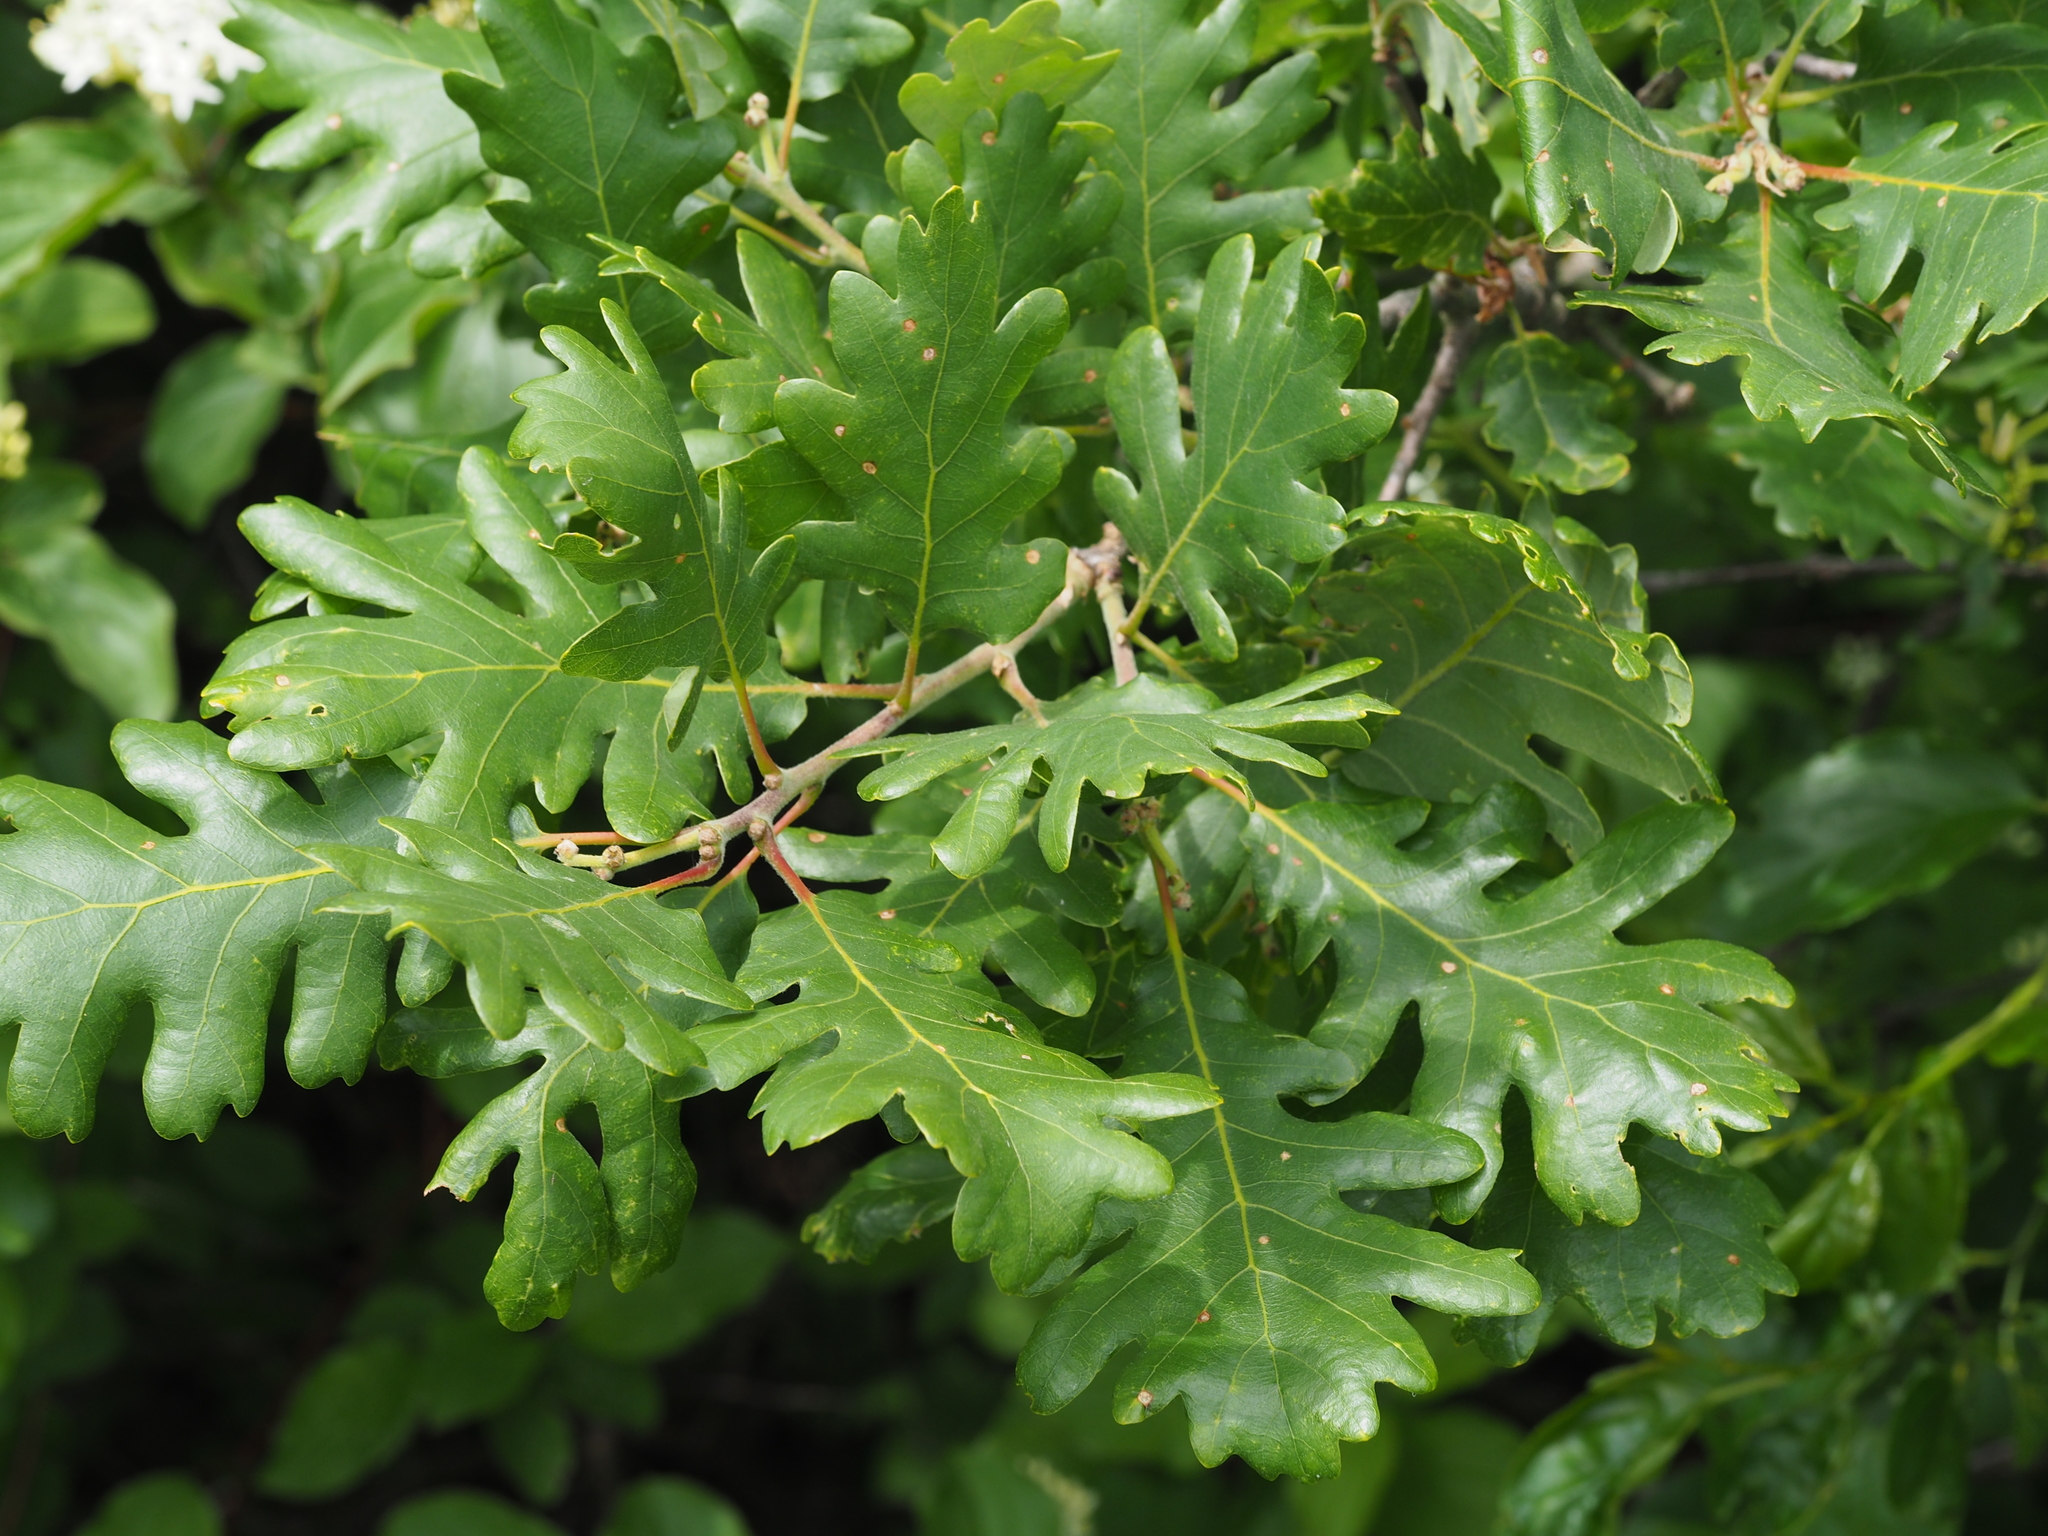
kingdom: Plantae
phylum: Tracheophyta
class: Magnoliopsida
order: Fagales
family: Fagaceae
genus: Quercus
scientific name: Quercus petraea
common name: Sessile oak
